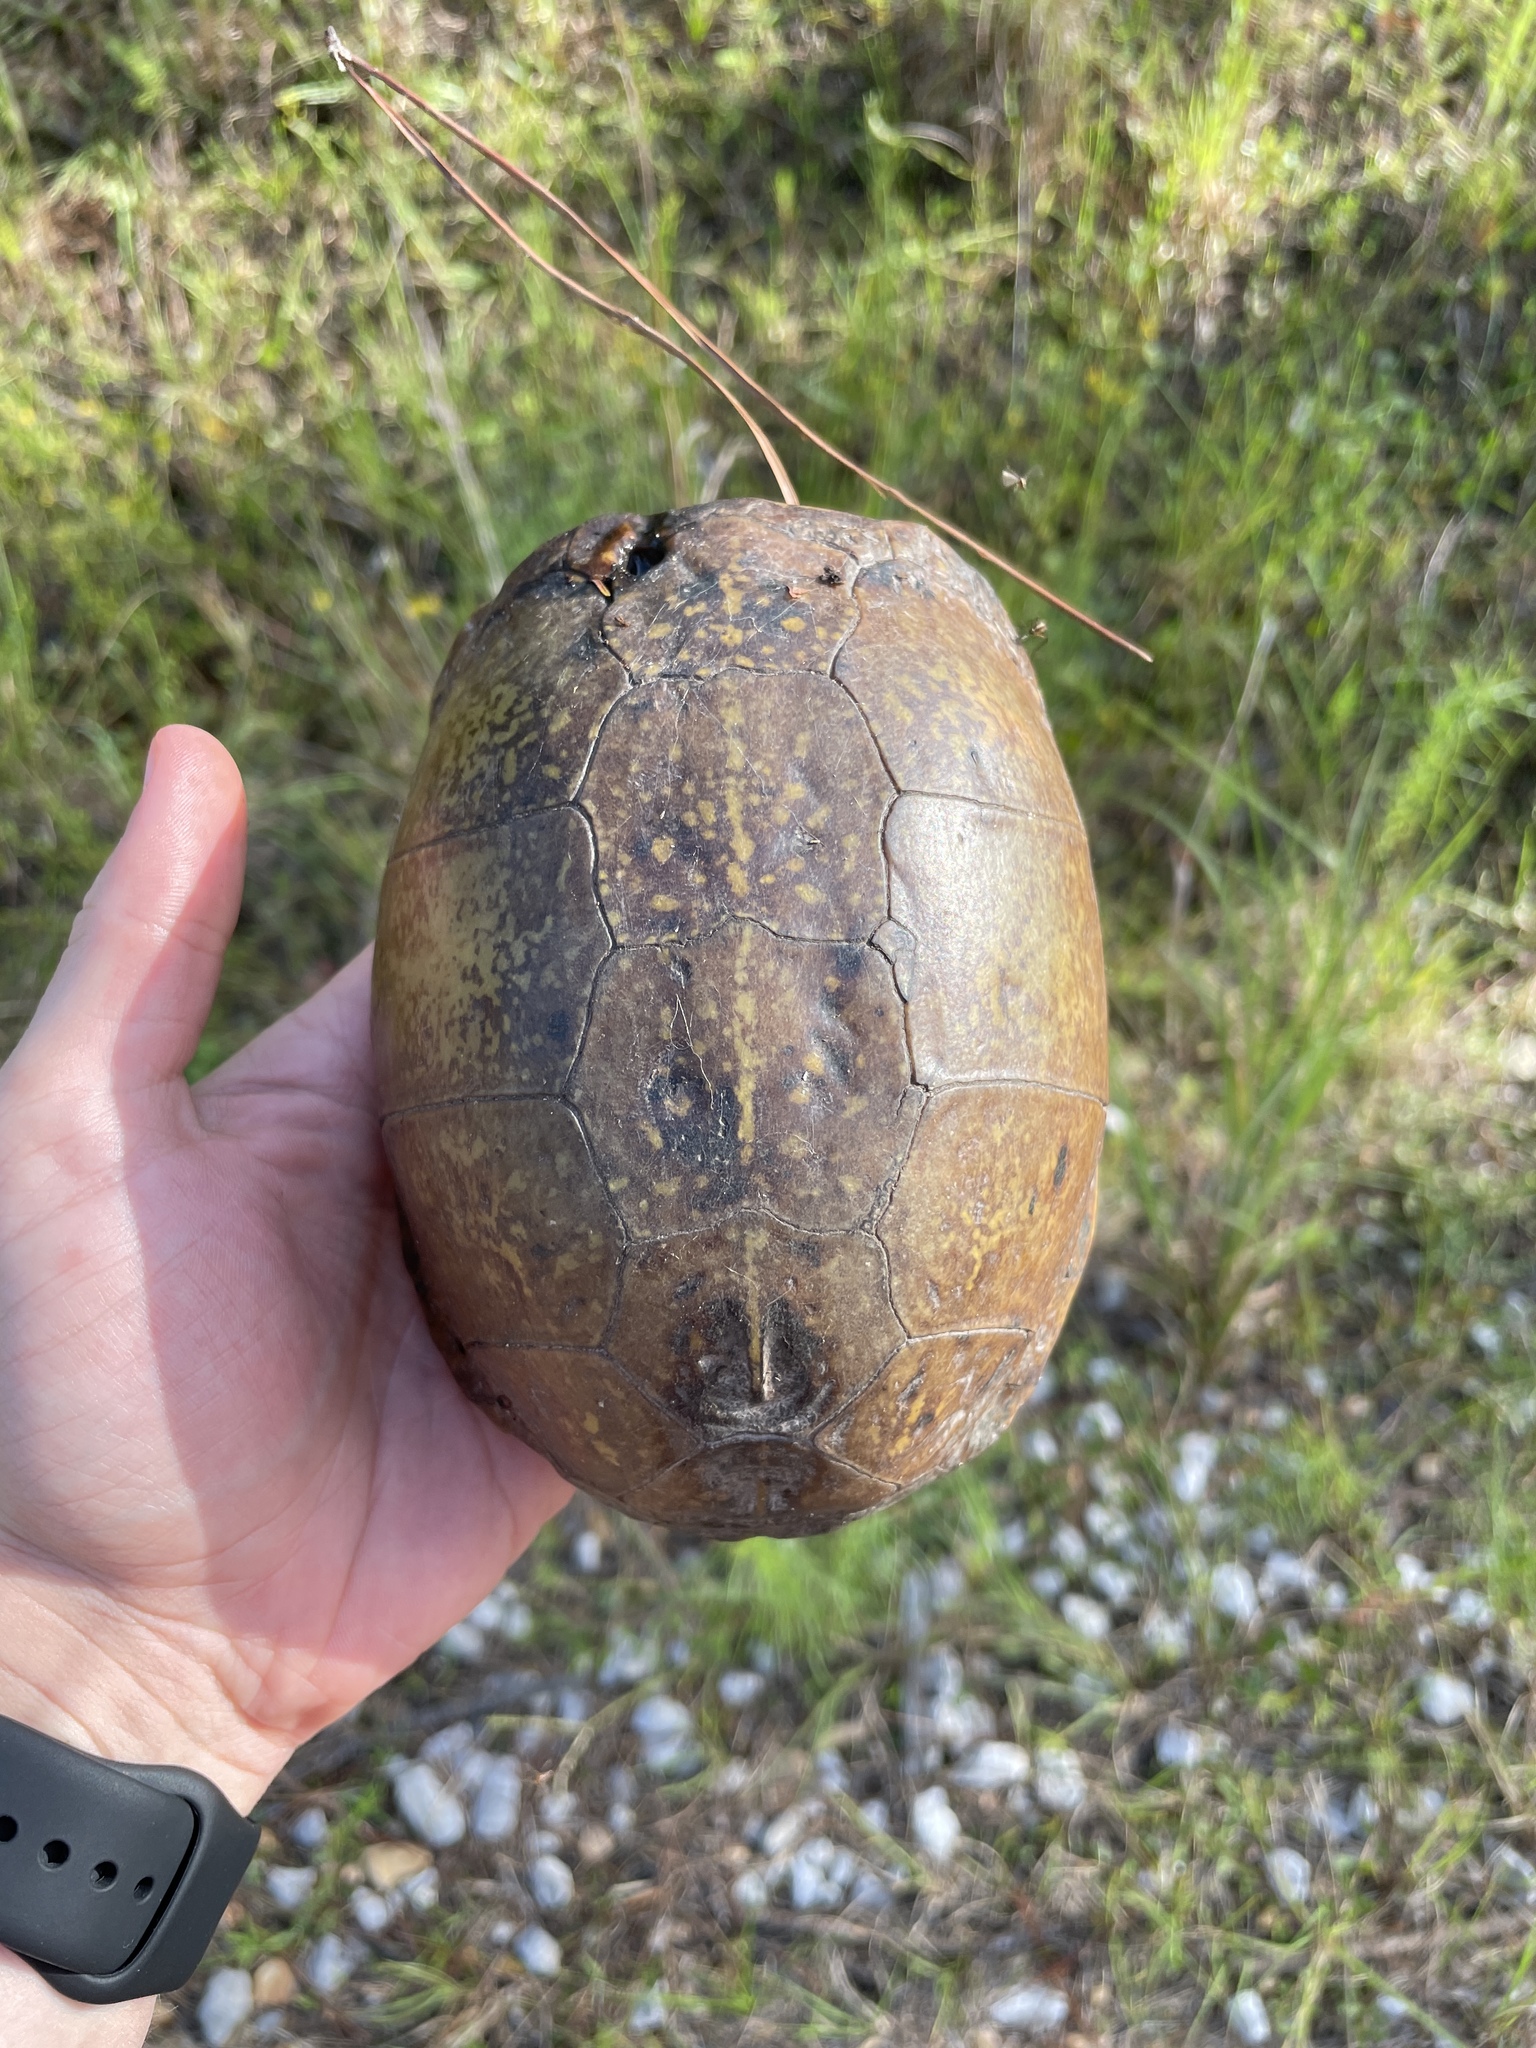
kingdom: Animalia
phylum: Chordata
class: Testudines
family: Emydidae
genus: Terrapene
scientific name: Terrapene carolina
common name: Common box turtle
